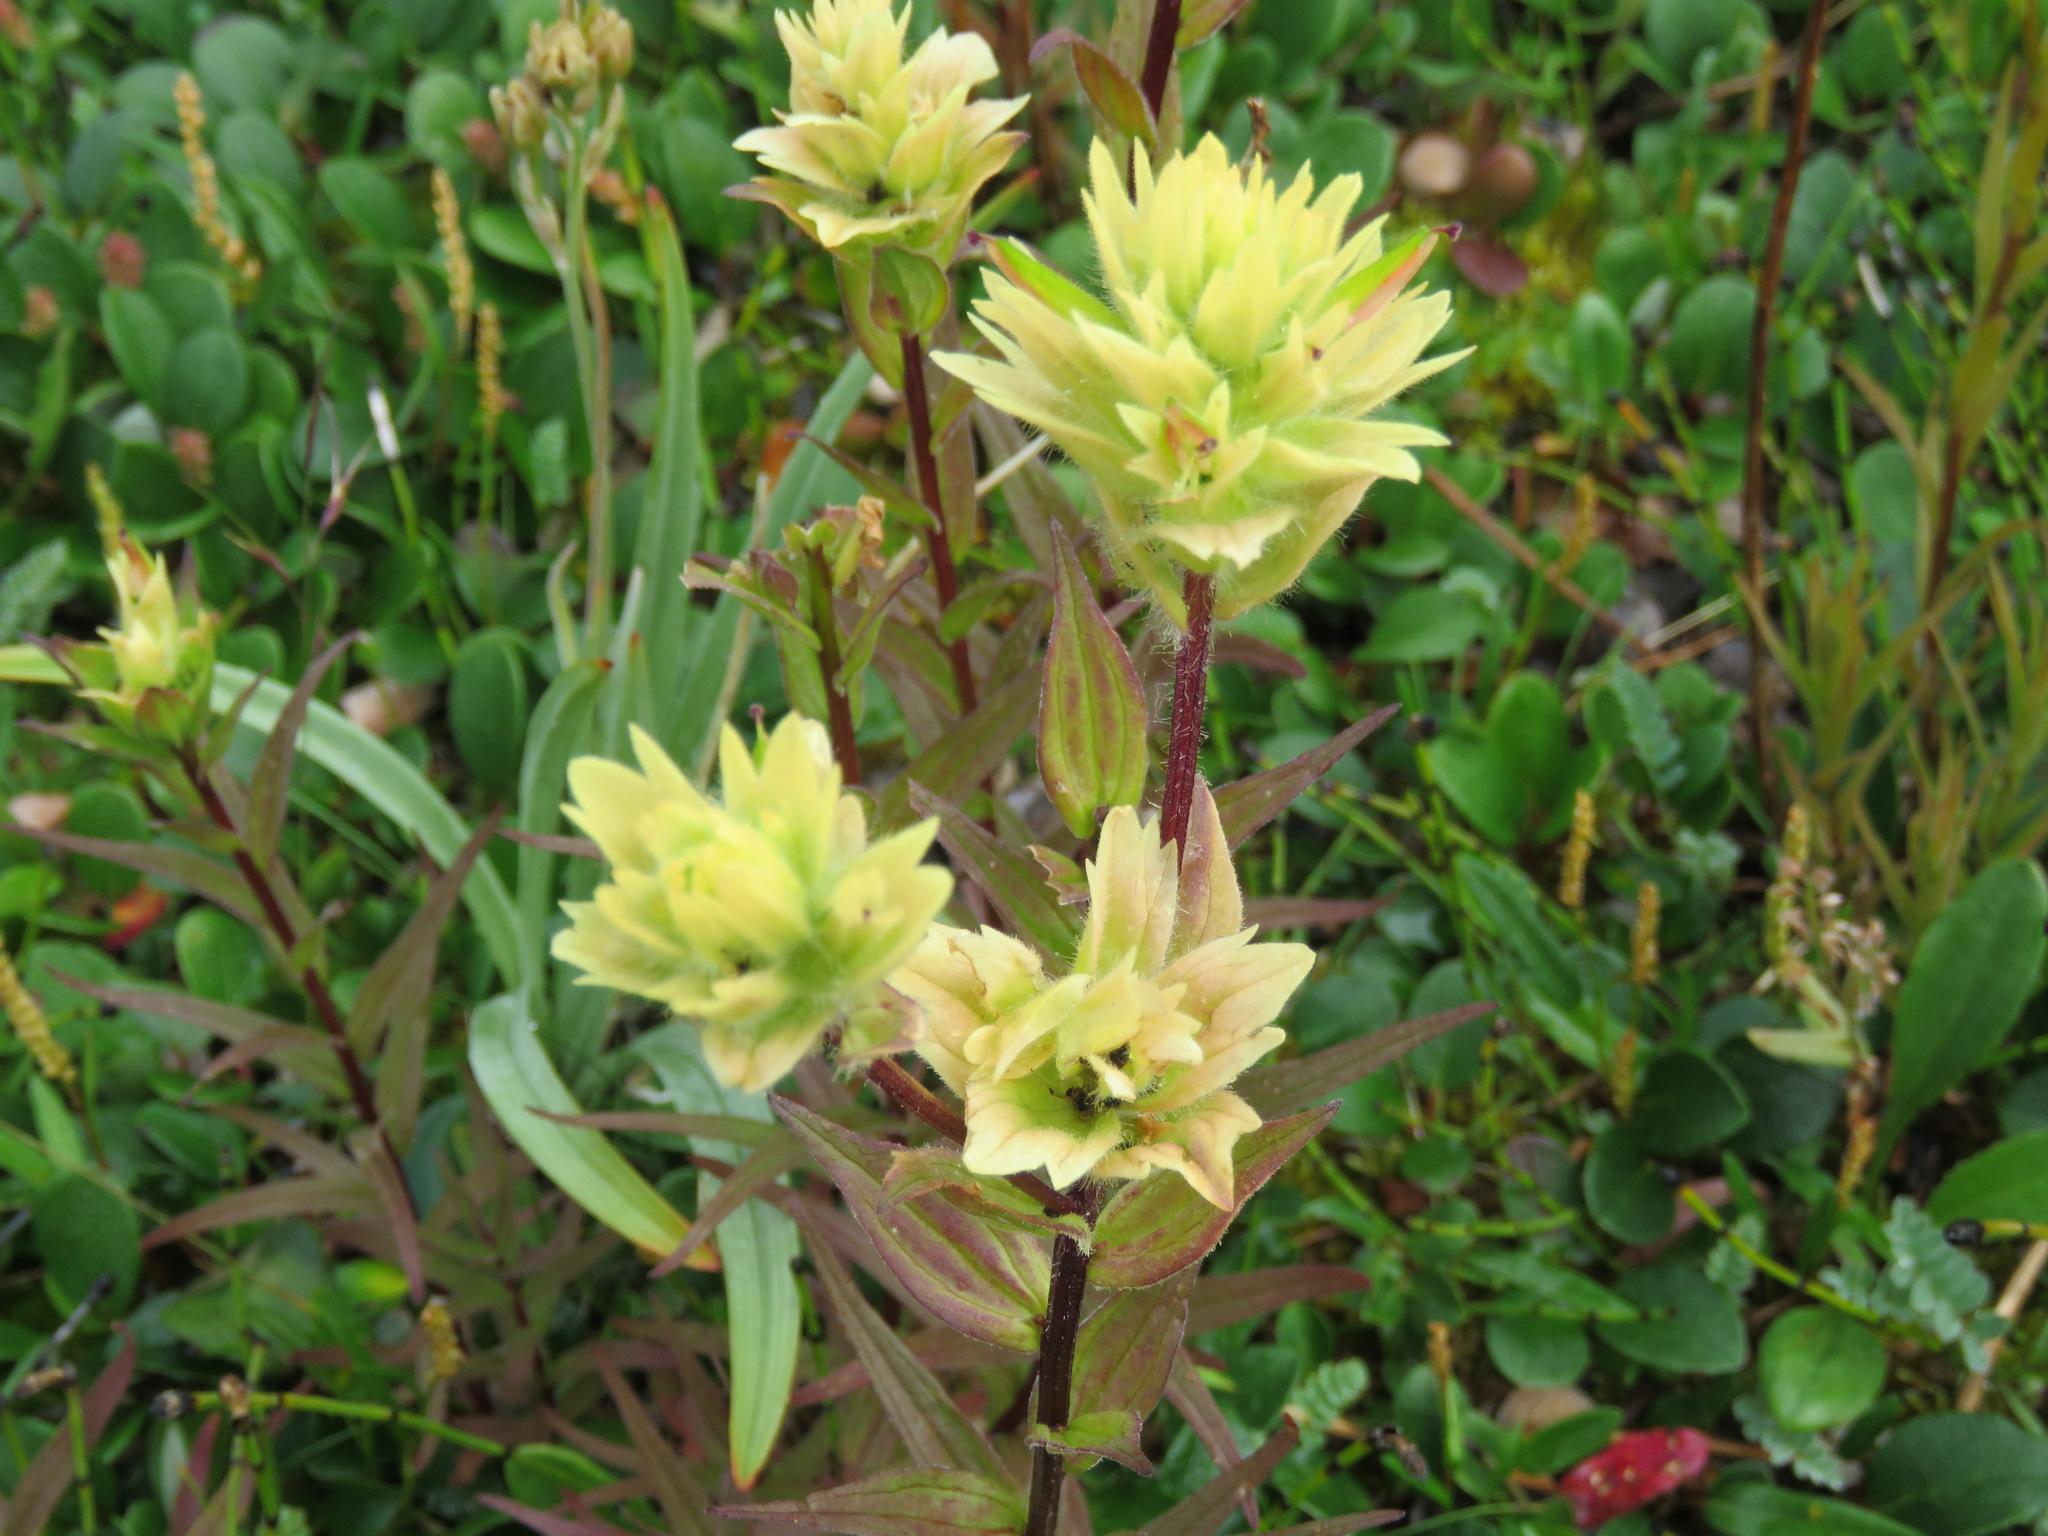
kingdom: Plantae
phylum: Tracheophyta
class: Magnoliopsida
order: Lamiales
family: Orobanchaceae
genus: Castilleja
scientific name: Castilleja miniata
